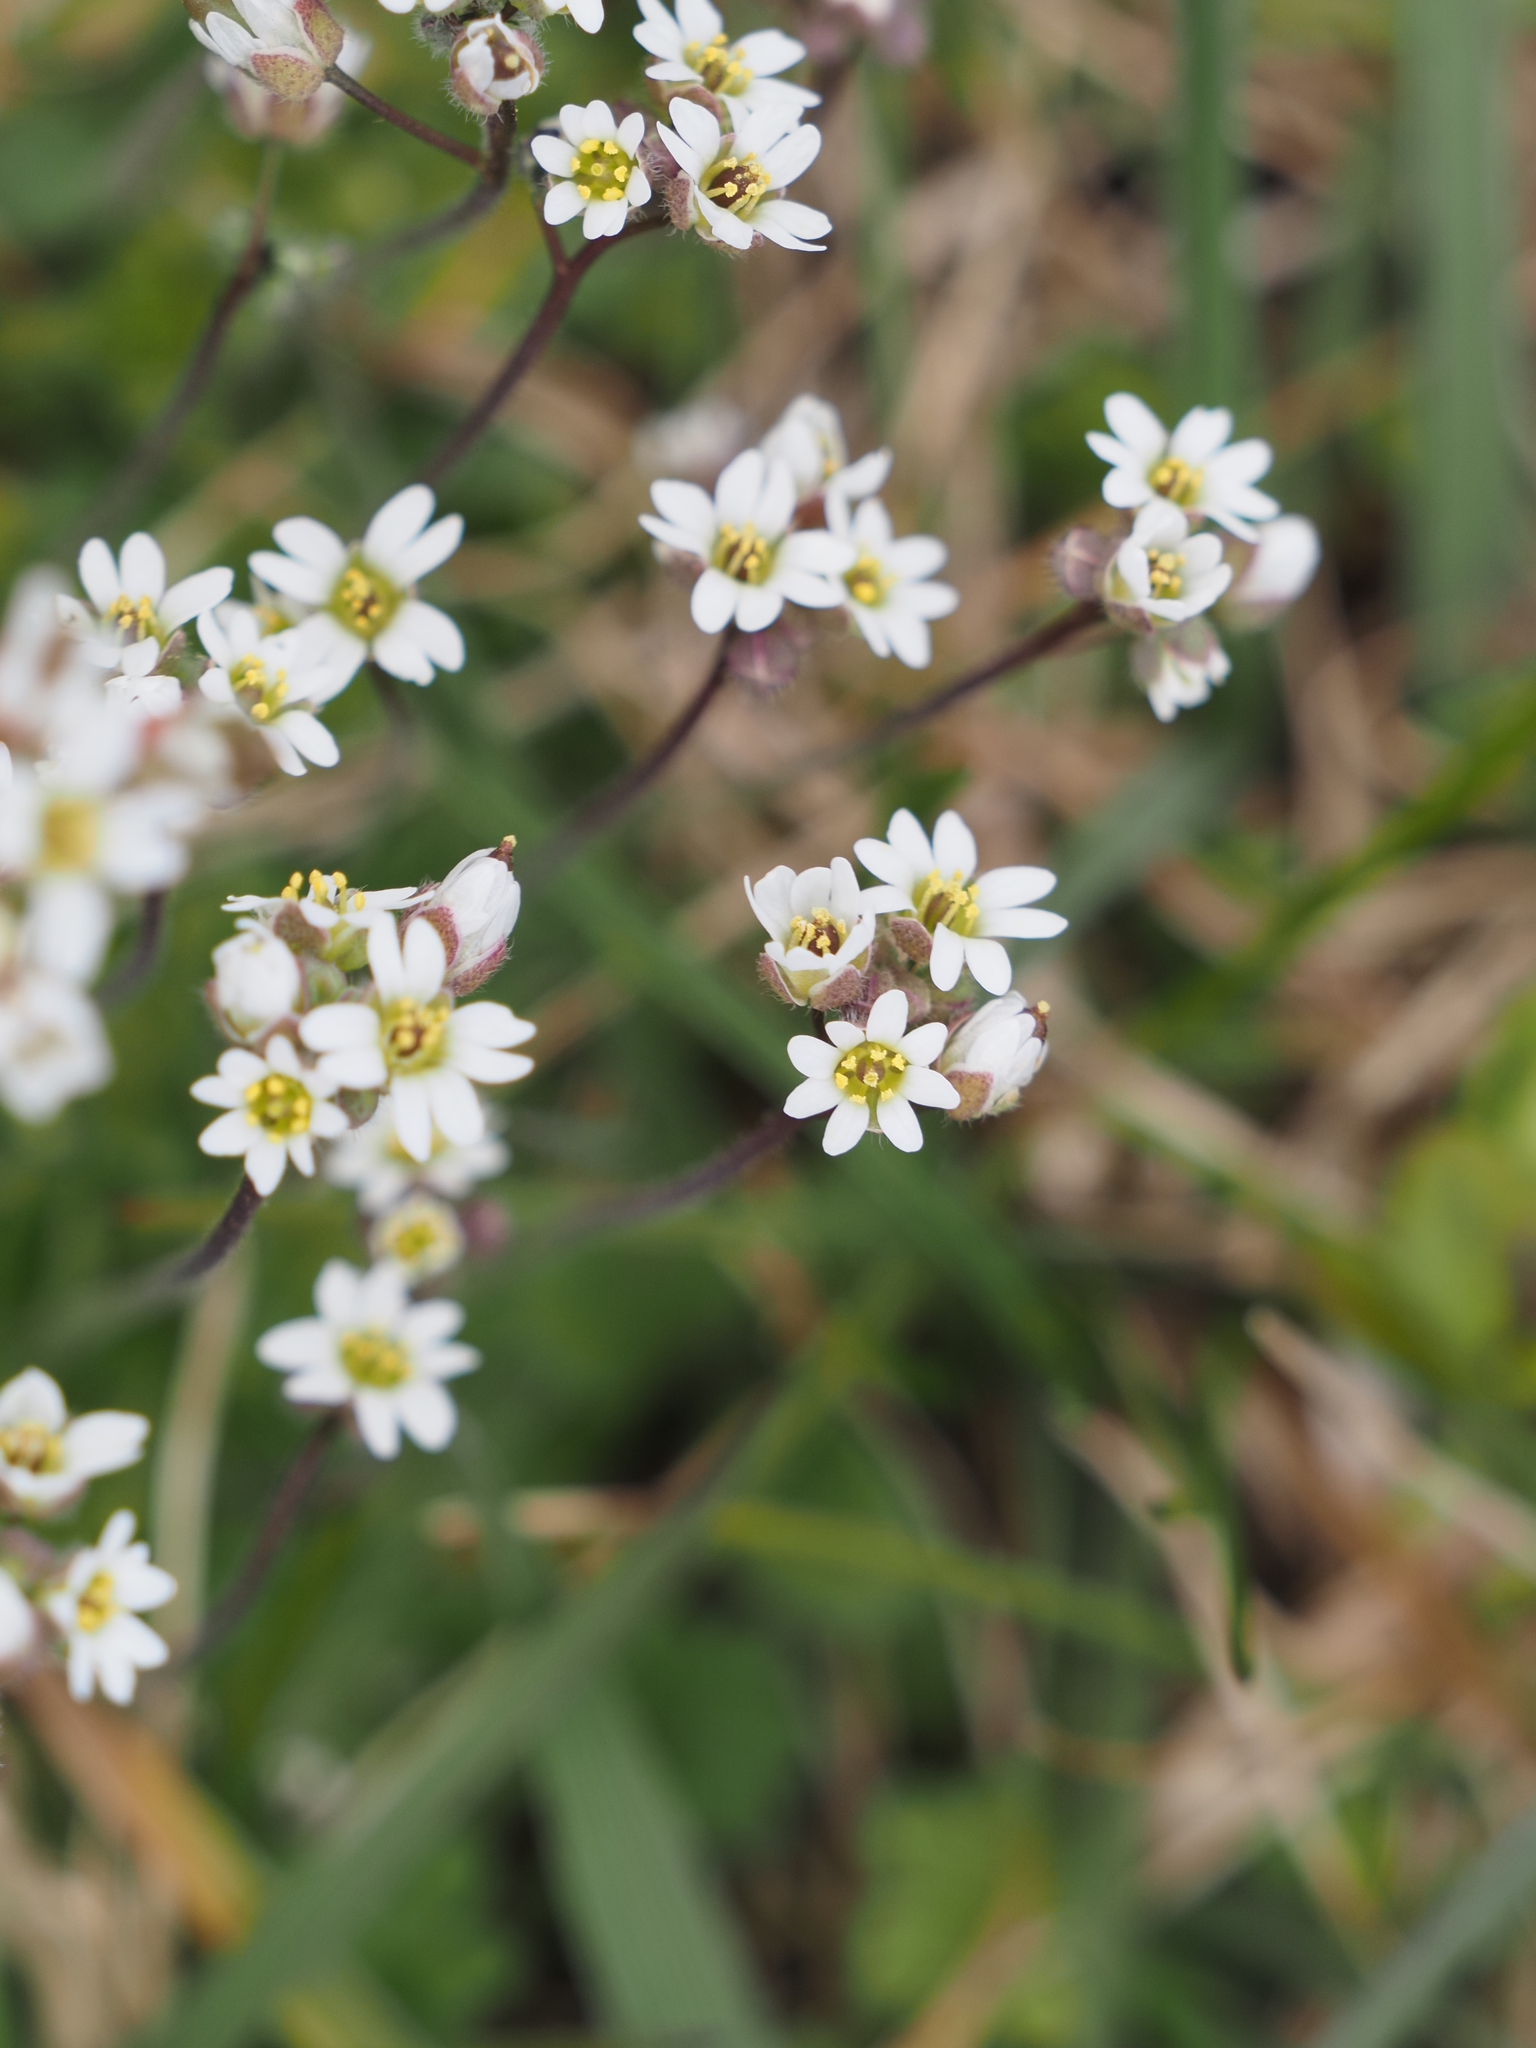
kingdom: Plantae
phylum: Tracheophyta
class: Magnoliopsida
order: Brassicales
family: Brassicaceae
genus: Draba
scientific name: Draba verna
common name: Spring draba
